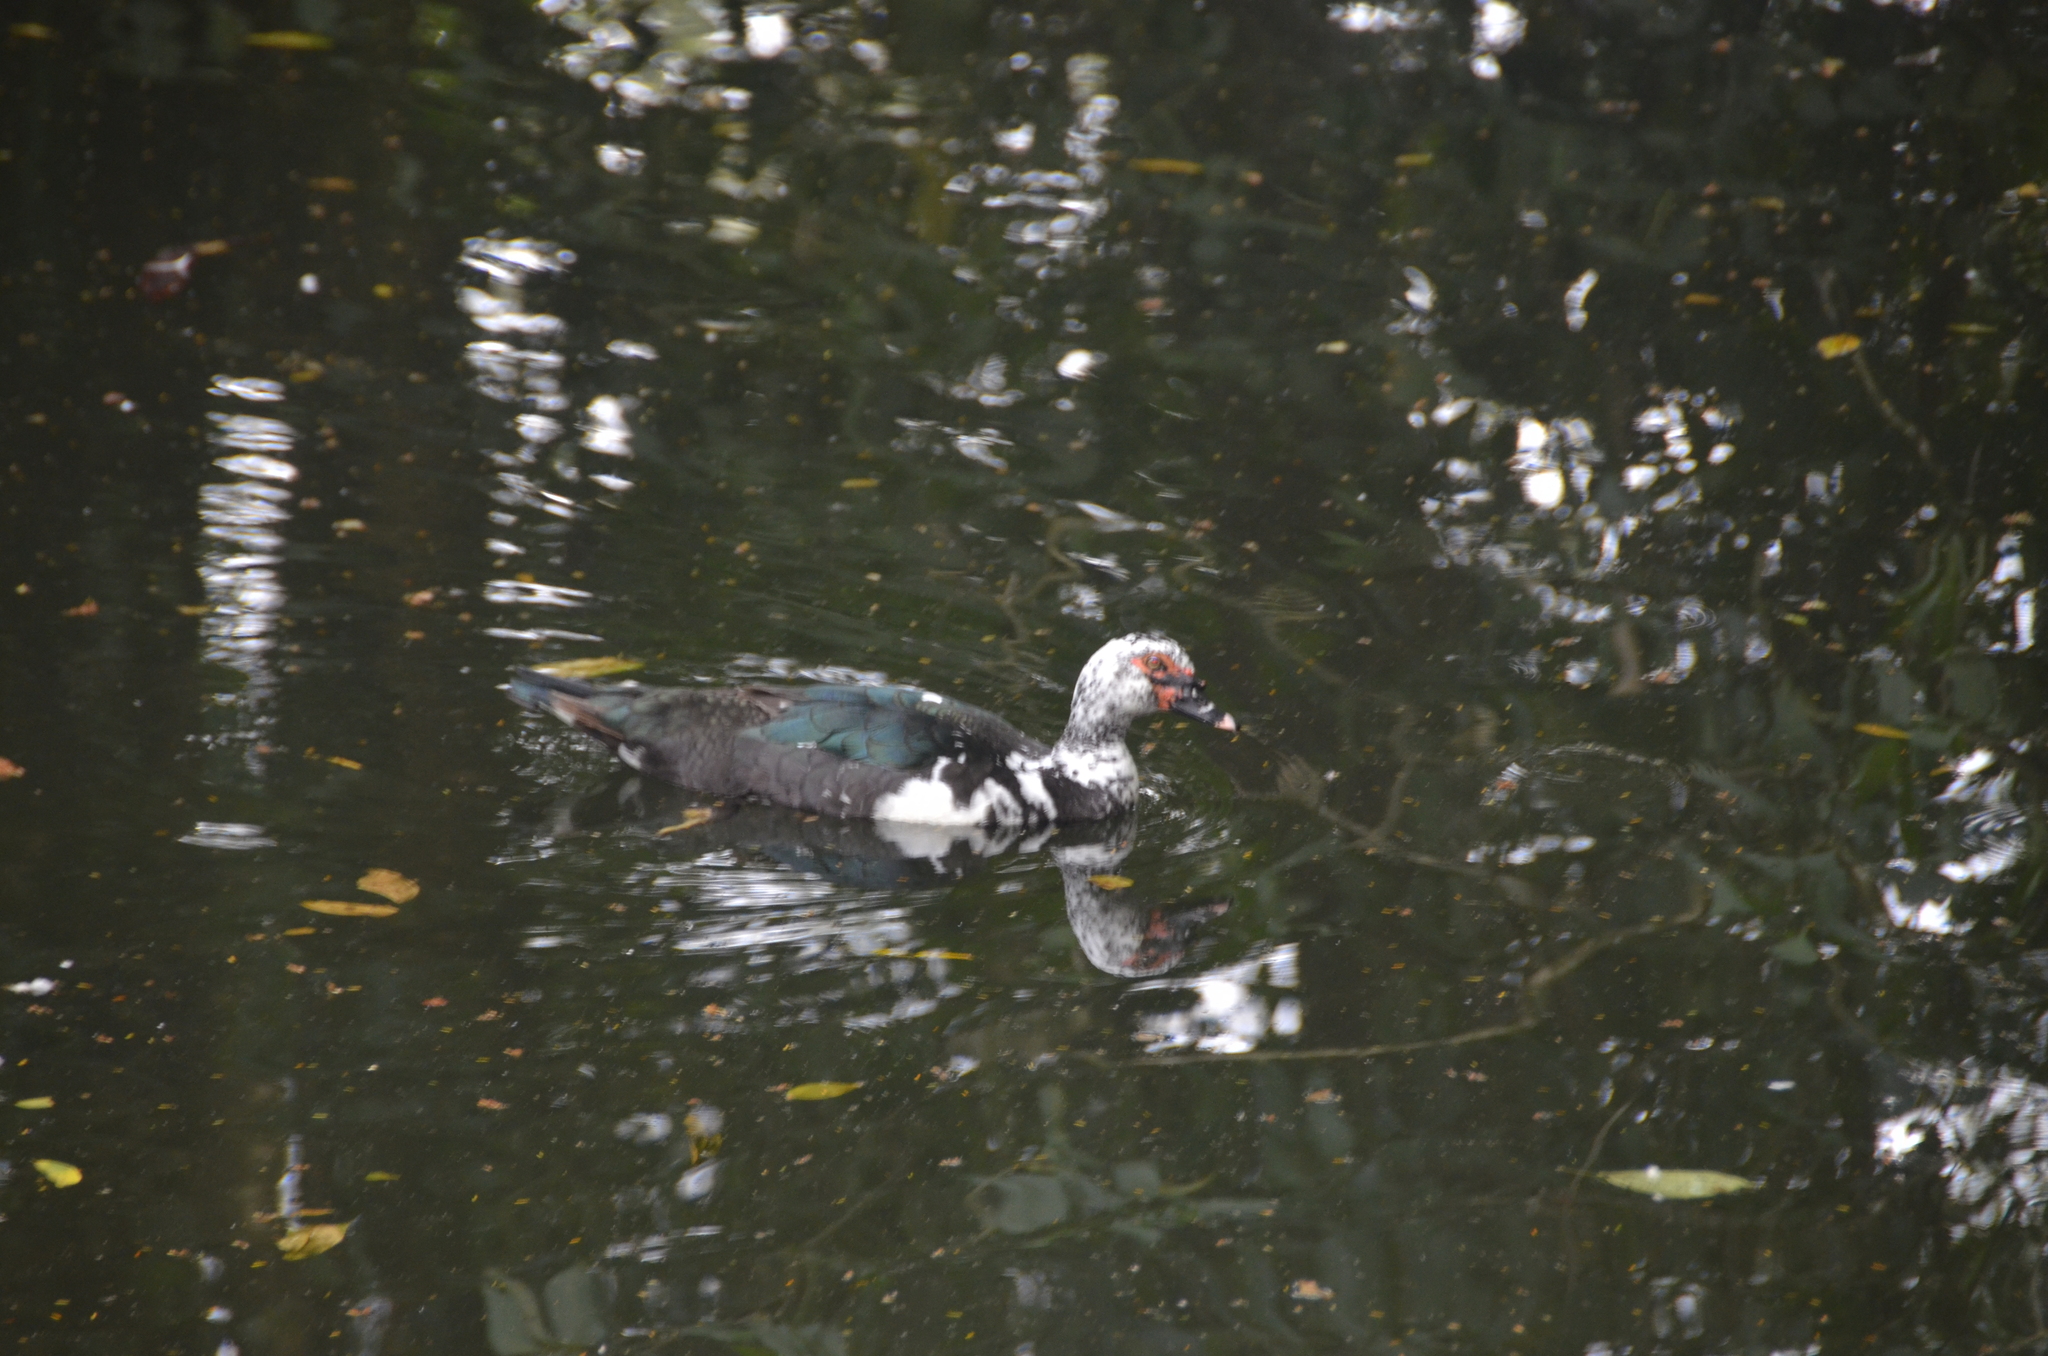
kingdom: Animalia
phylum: Chordata
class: Aves
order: Anseriformes
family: Anatidae
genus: Cairina
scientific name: Cairina moschata
